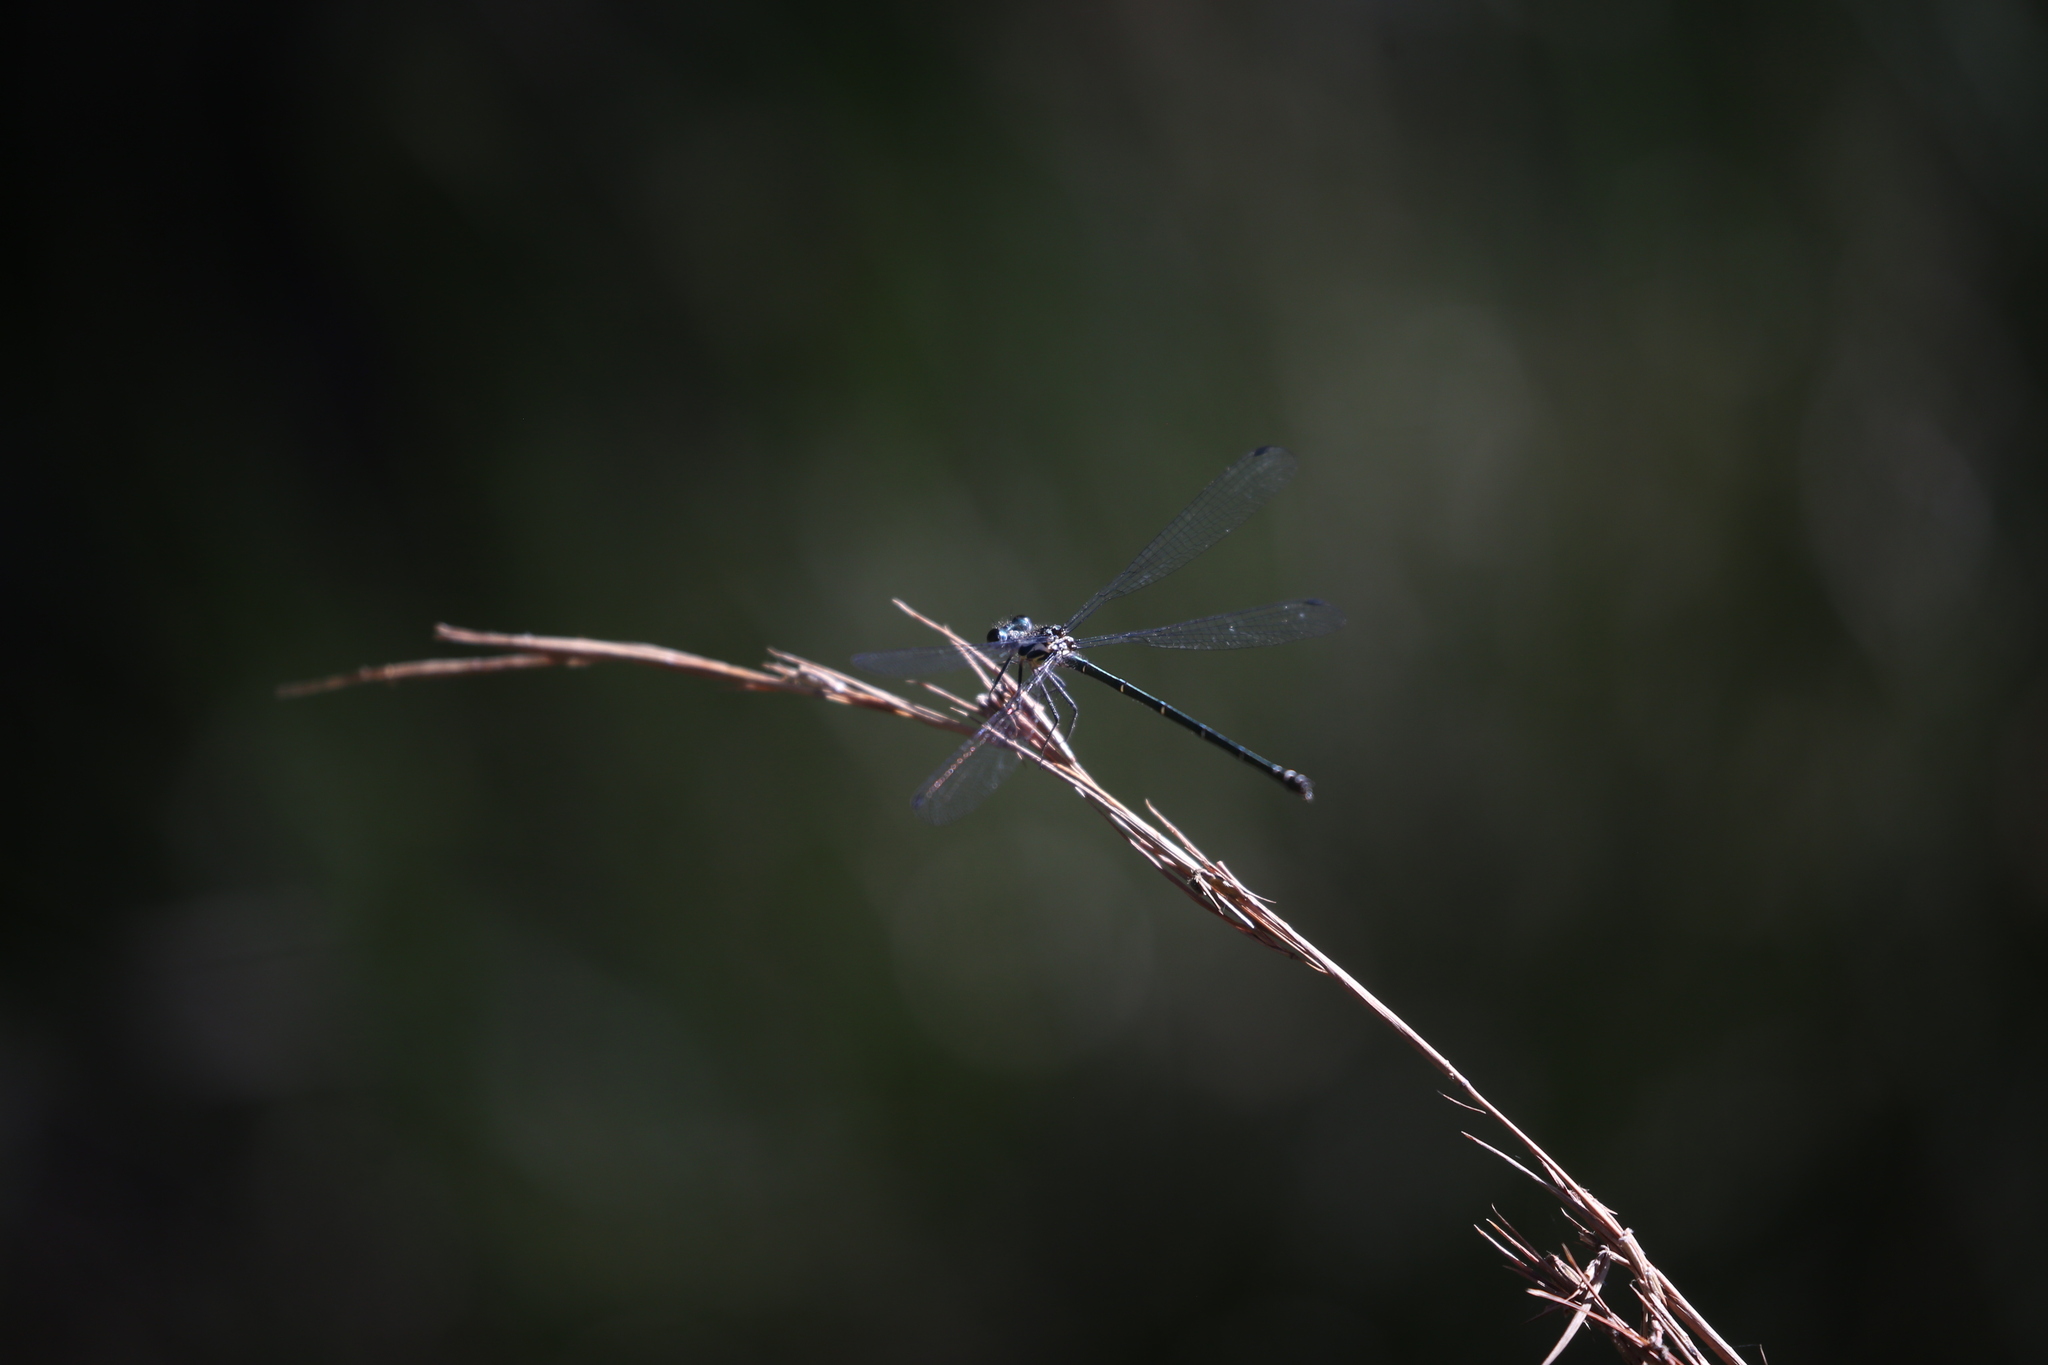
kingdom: Animalia
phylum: Arthropoda
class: Insecta
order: Odonata
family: Argiolestidae
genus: Austroargiolestes
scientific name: Austroargiolestes icteromelas
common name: Common flatwing
